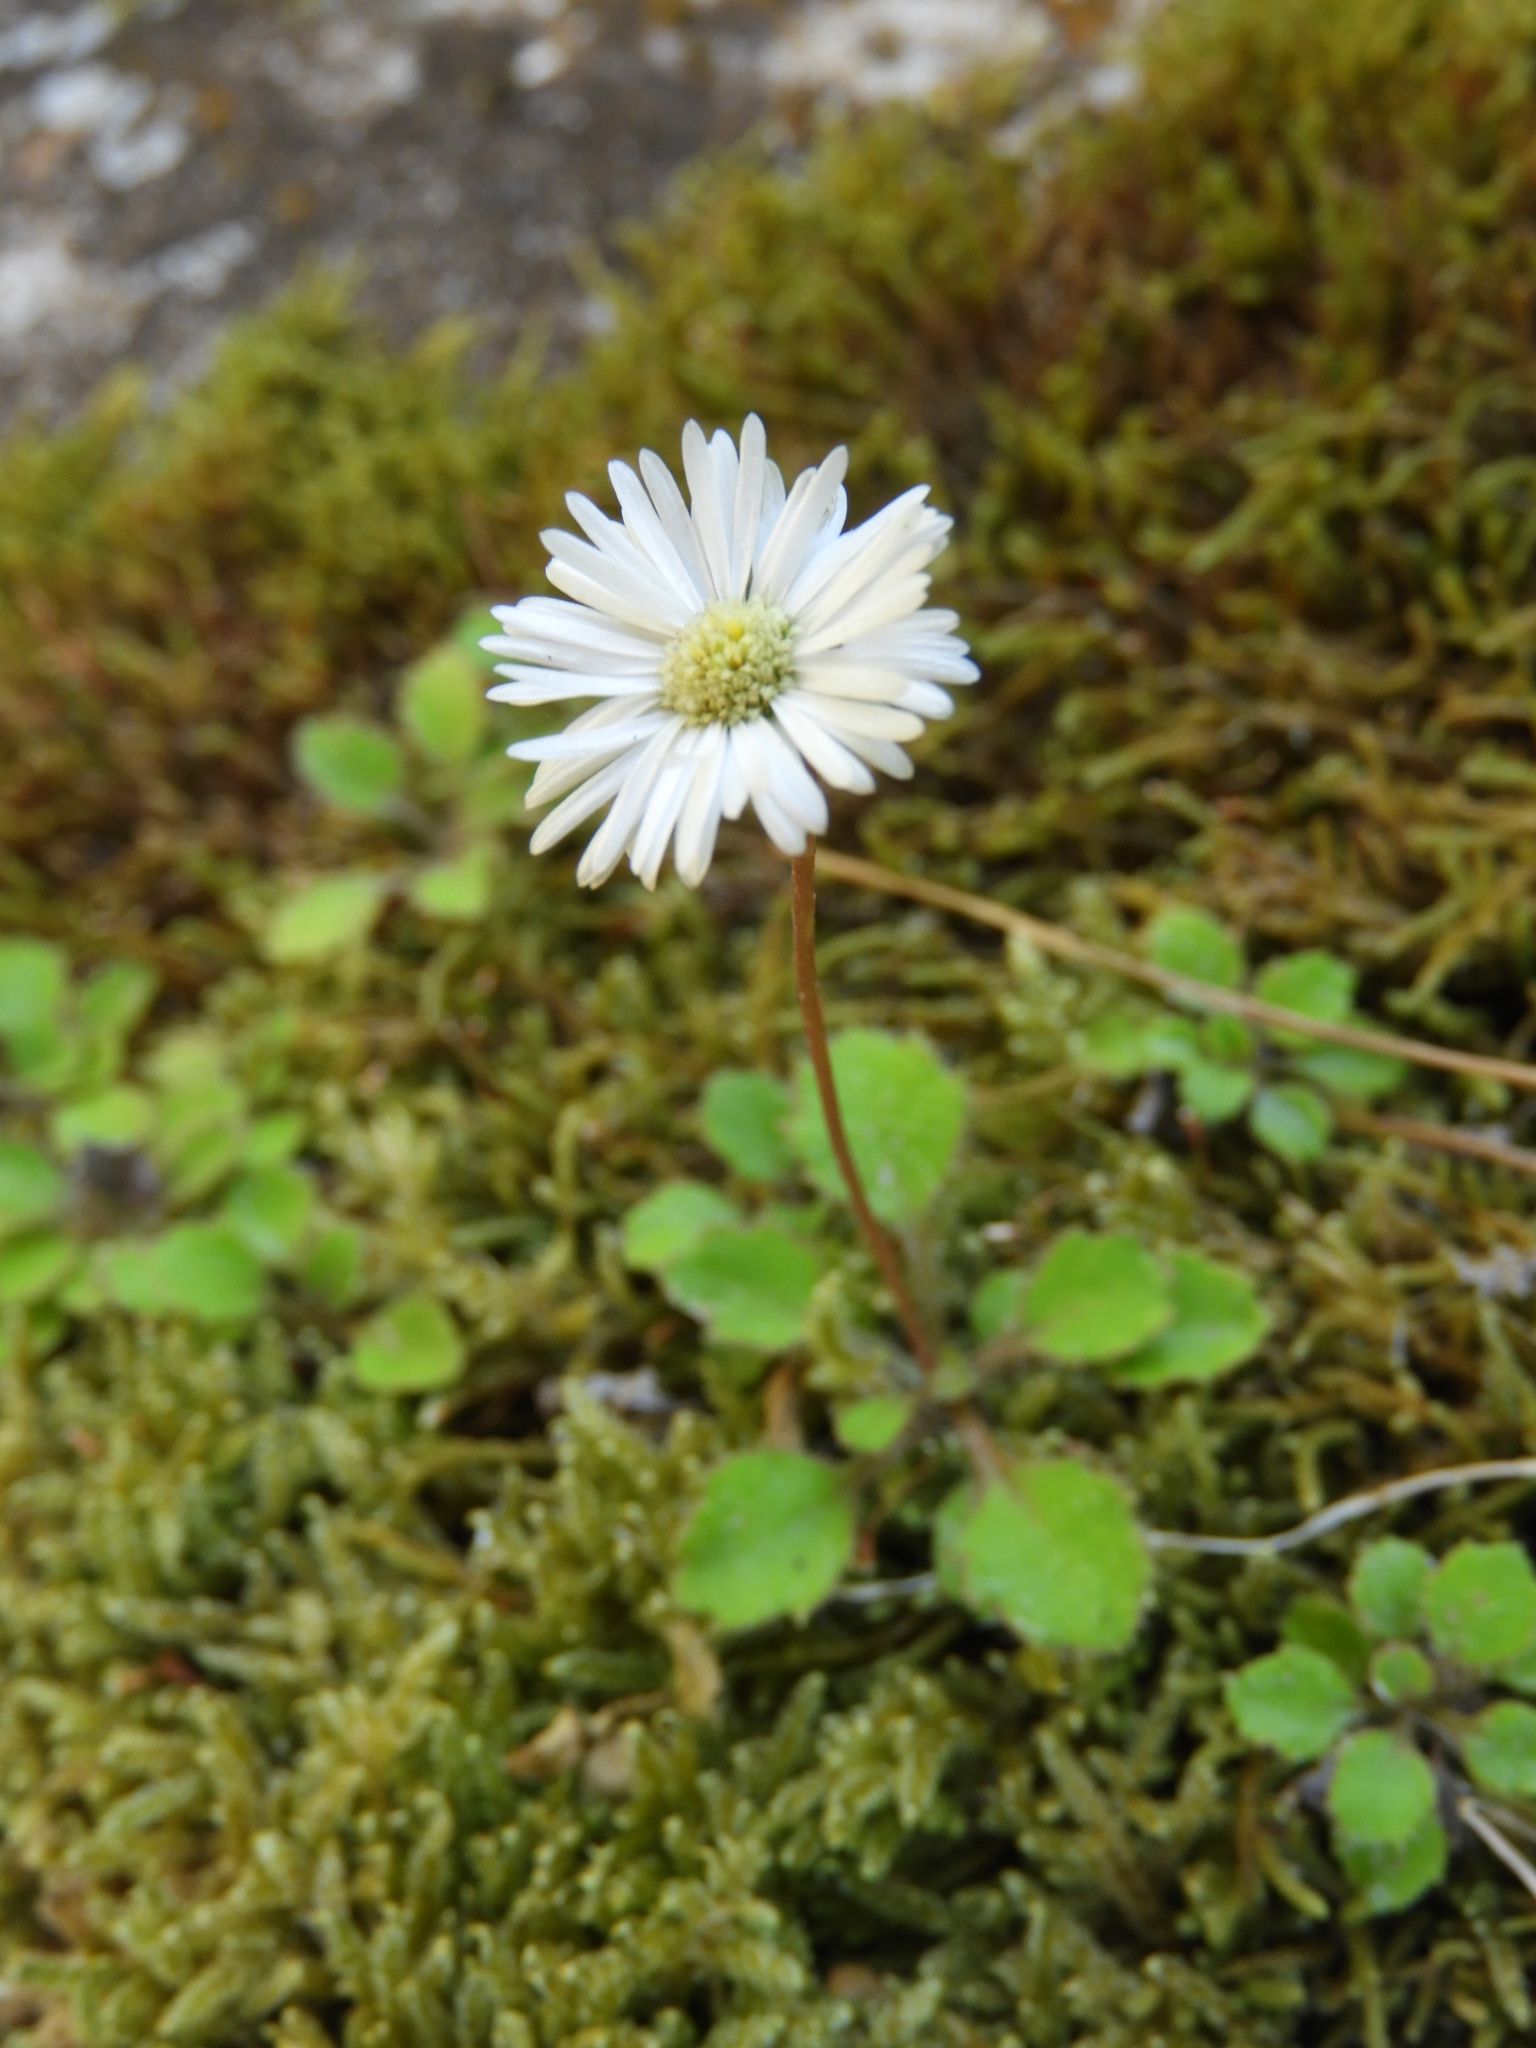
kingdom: Plantae
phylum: Tracheophyta
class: Magnoliopsida
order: Asterales
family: Asteraceae
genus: Lagenophora
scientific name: Lagenophora pumila
